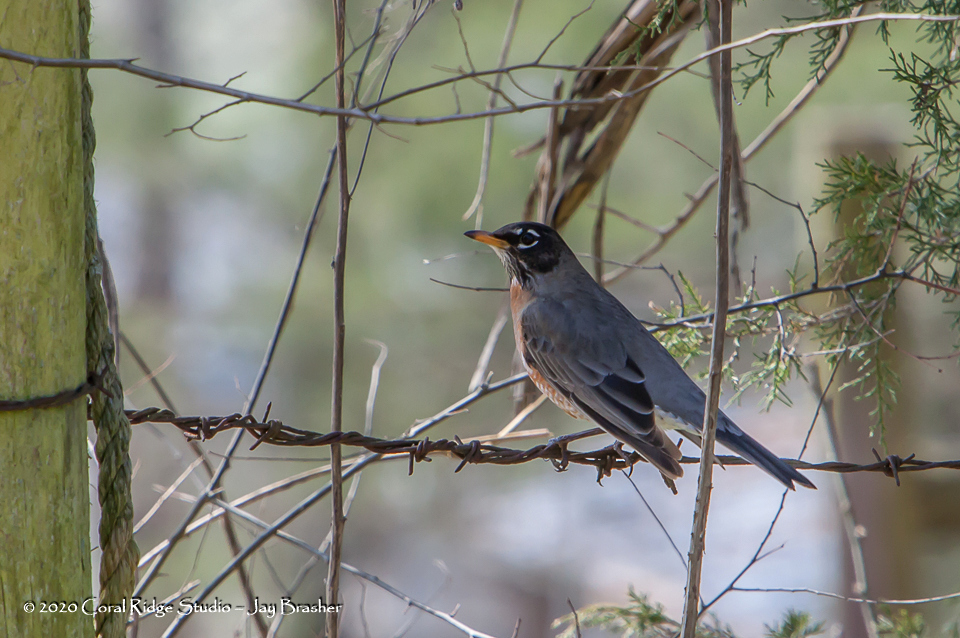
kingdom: Animalia
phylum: Chordata
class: Aves
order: Passeriformes
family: Turdidae
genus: Turdus
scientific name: Turdus migratorius
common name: American robin
